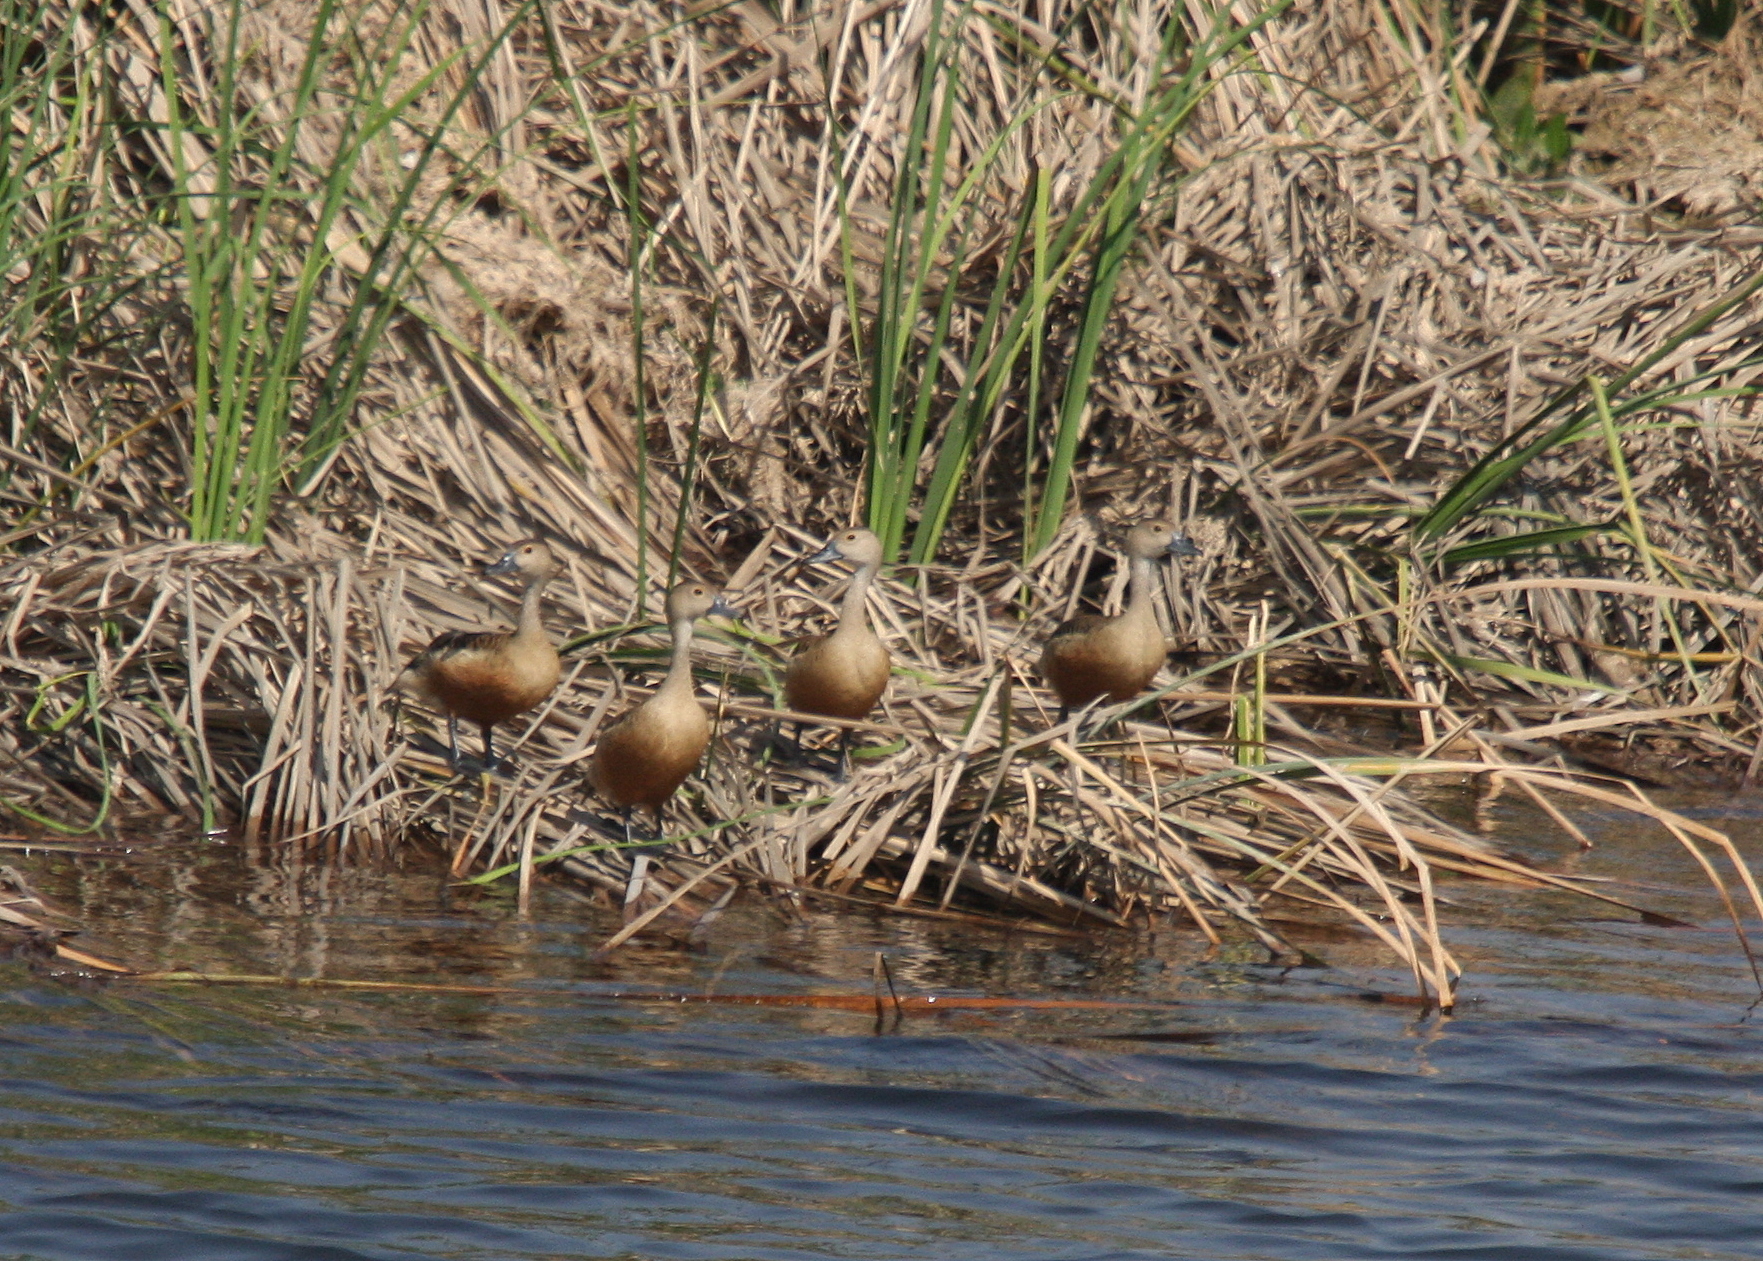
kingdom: Animalia
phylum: Chordata
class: Aves
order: Anseriformes
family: Anatidae
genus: Dendrocygna
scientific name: Dendrocygna javanica
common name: Lesser whistling-duck
